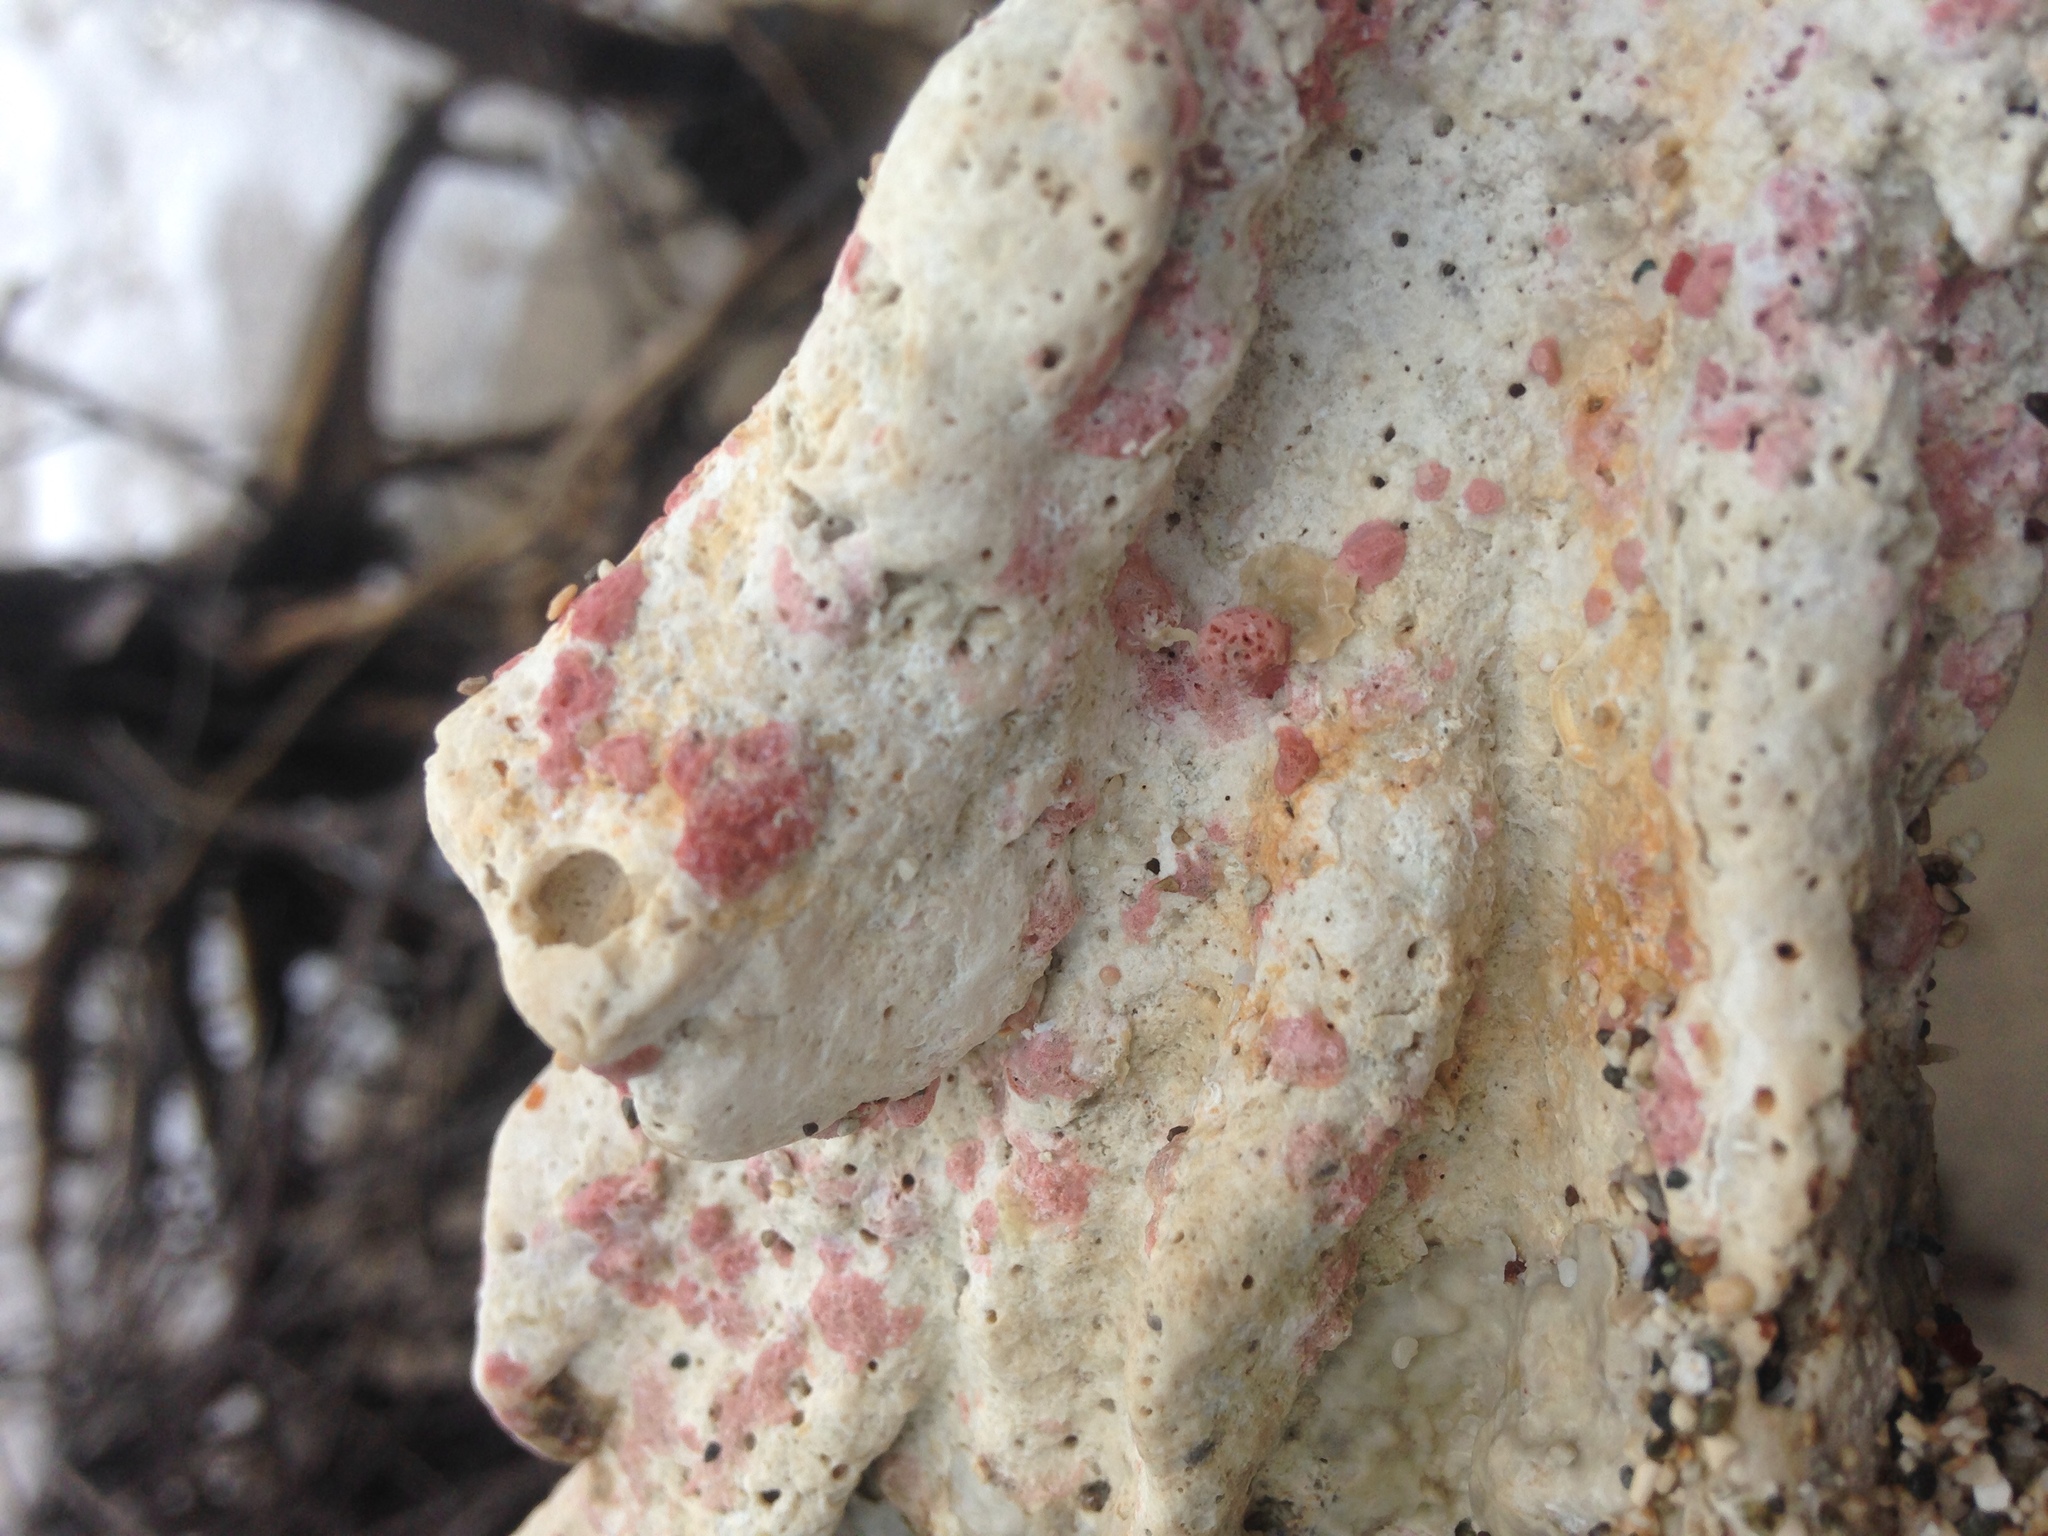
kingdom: Chromista
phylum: Foraminifera
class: Globothalamea
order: Rotaliida
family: Homotrematidae
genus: Homotrema
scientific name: Homotrema rubrum
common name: Red foram
